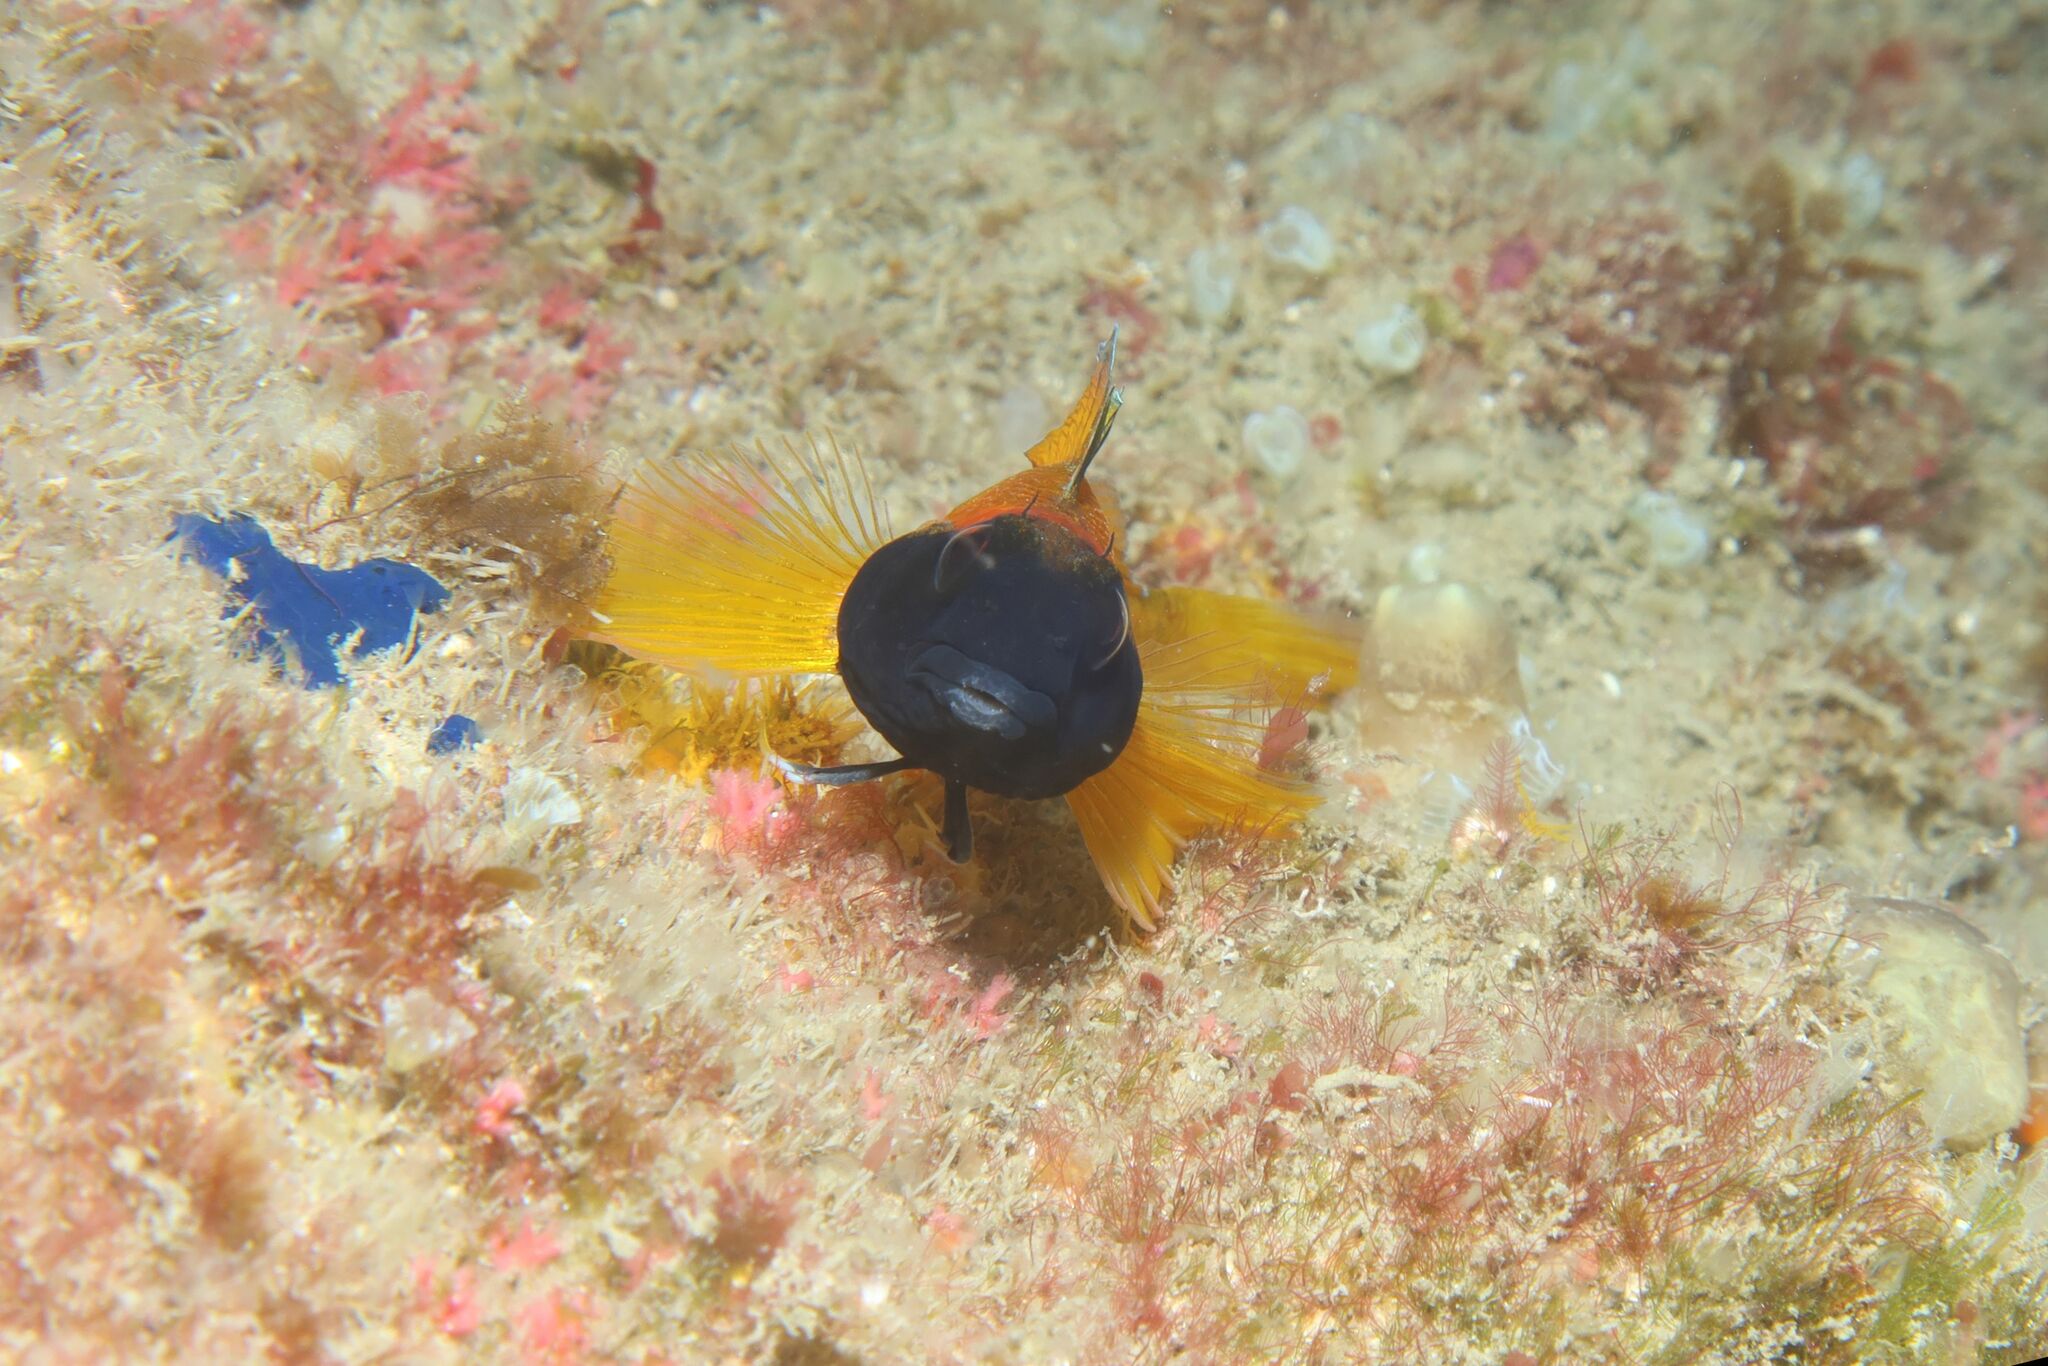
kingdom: Animalia
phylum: Chordata
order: Perciformes
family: Tripterygiidae
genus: Tripterygion
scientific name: Tripterygion delaisi
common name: Black-face blenny
